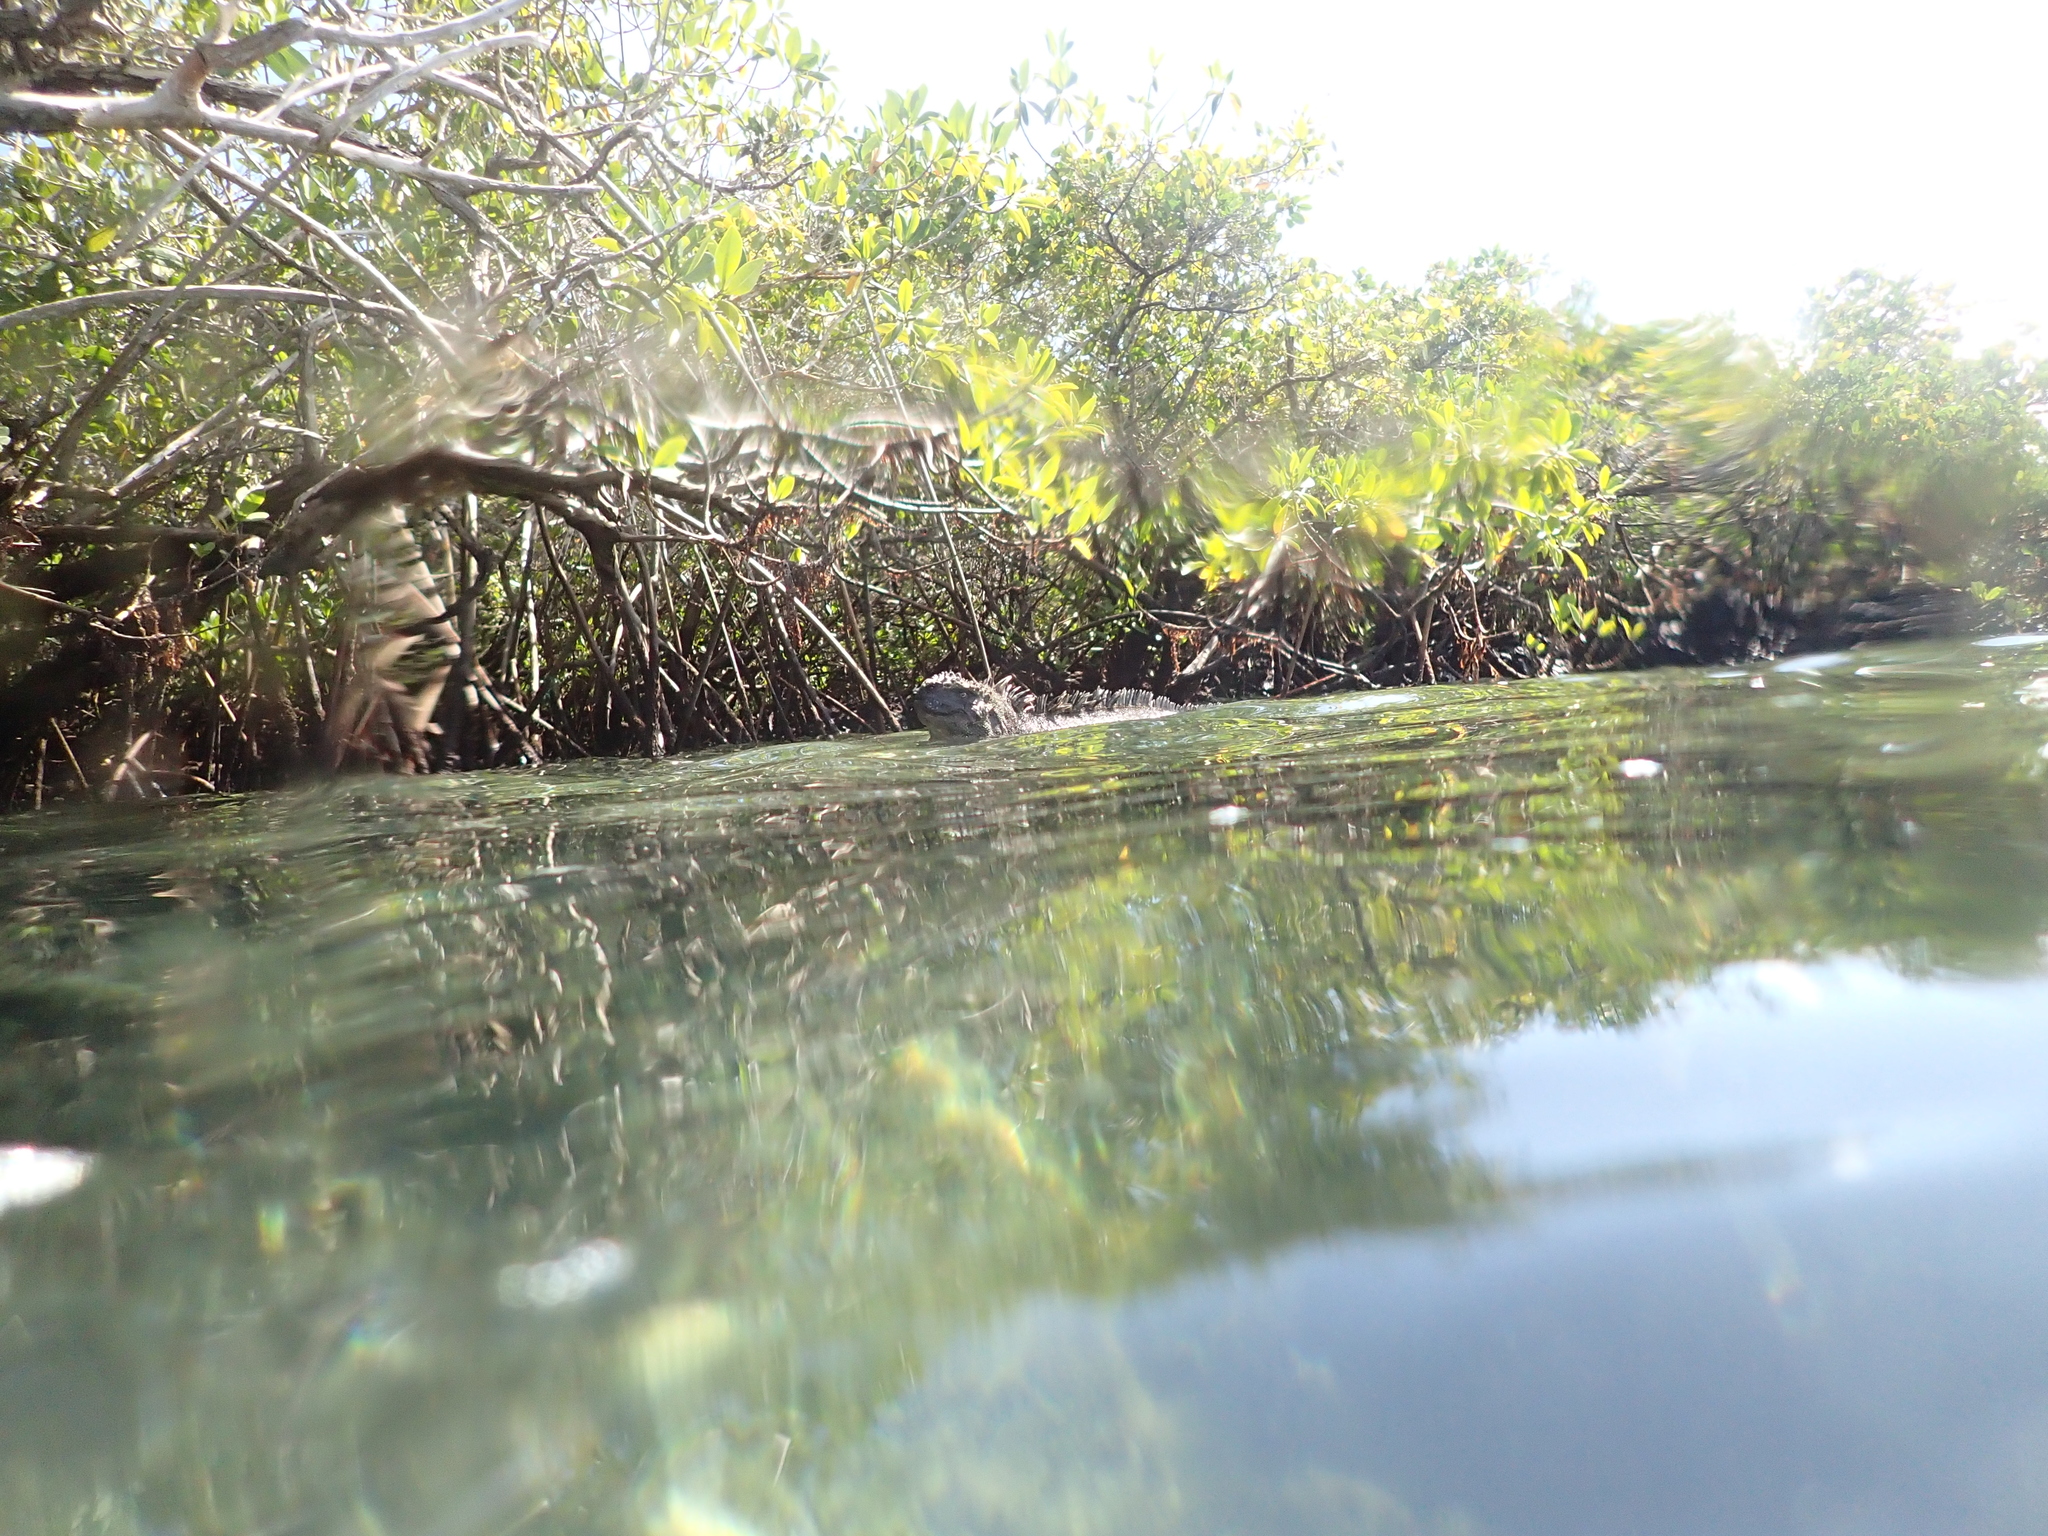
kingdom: Animalia
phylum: Chordata
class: Squamata
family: Iguanidae
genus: Amblyrhynchus
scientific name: Amblyrhynchus cristatus
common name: Marine iguana
